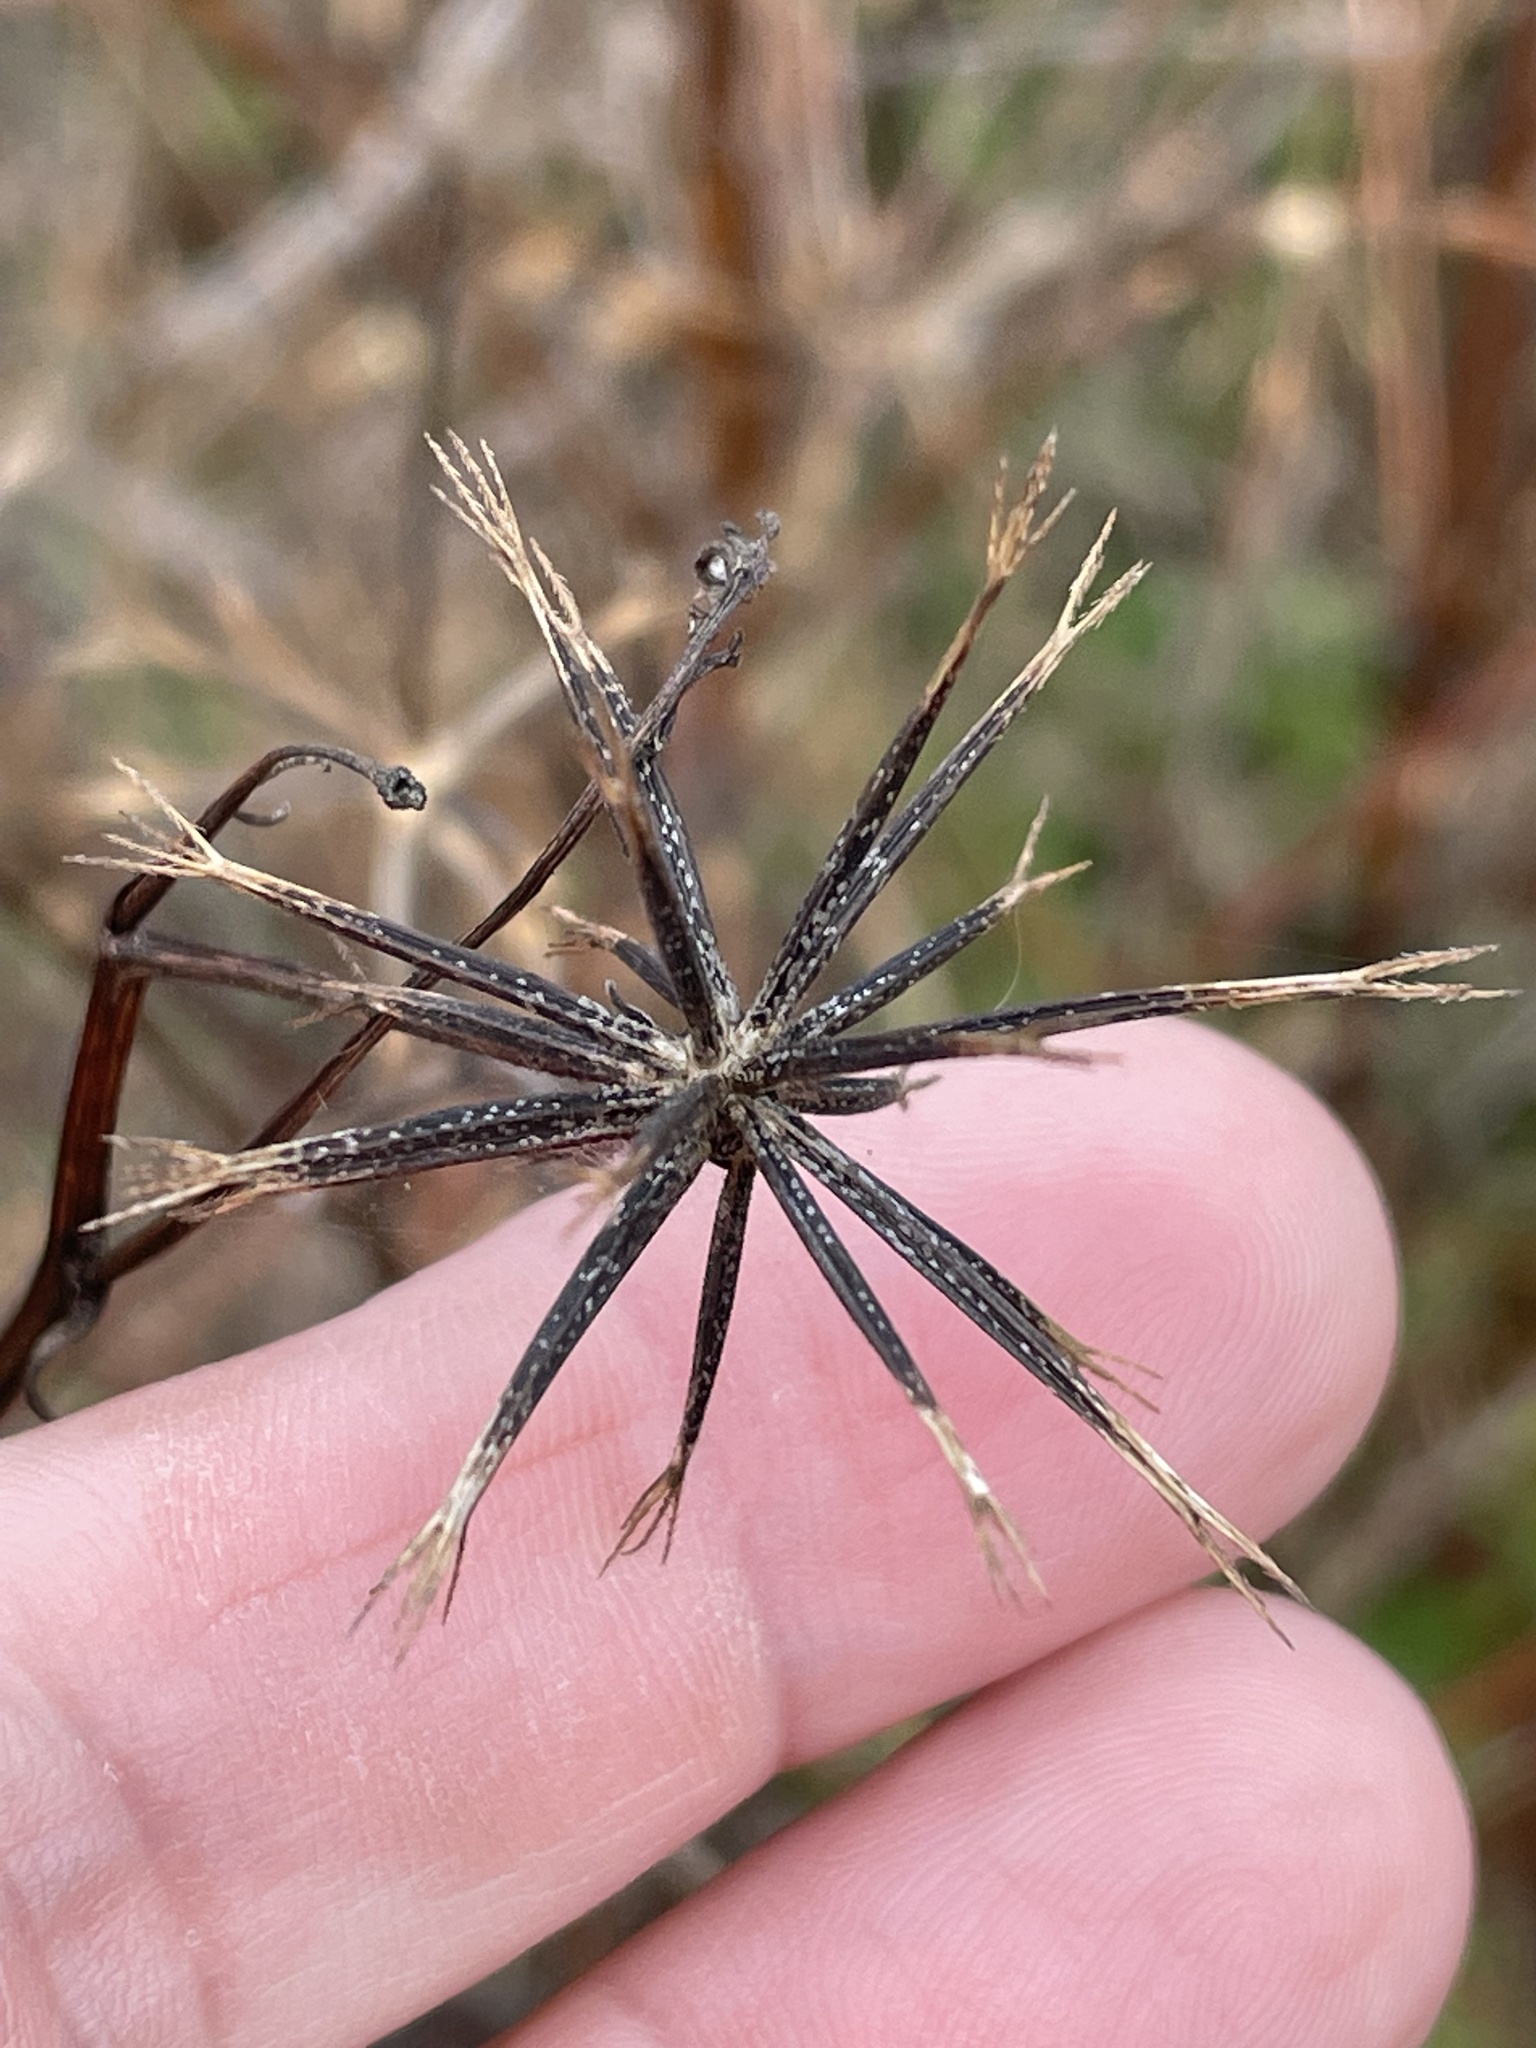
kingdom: Plantae
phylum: Tracheophyta
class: Magnoliopsida
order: Asterales
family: Asteraceae
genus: Bidens
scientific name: Bidens bipinnata
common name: Spanish-needles
